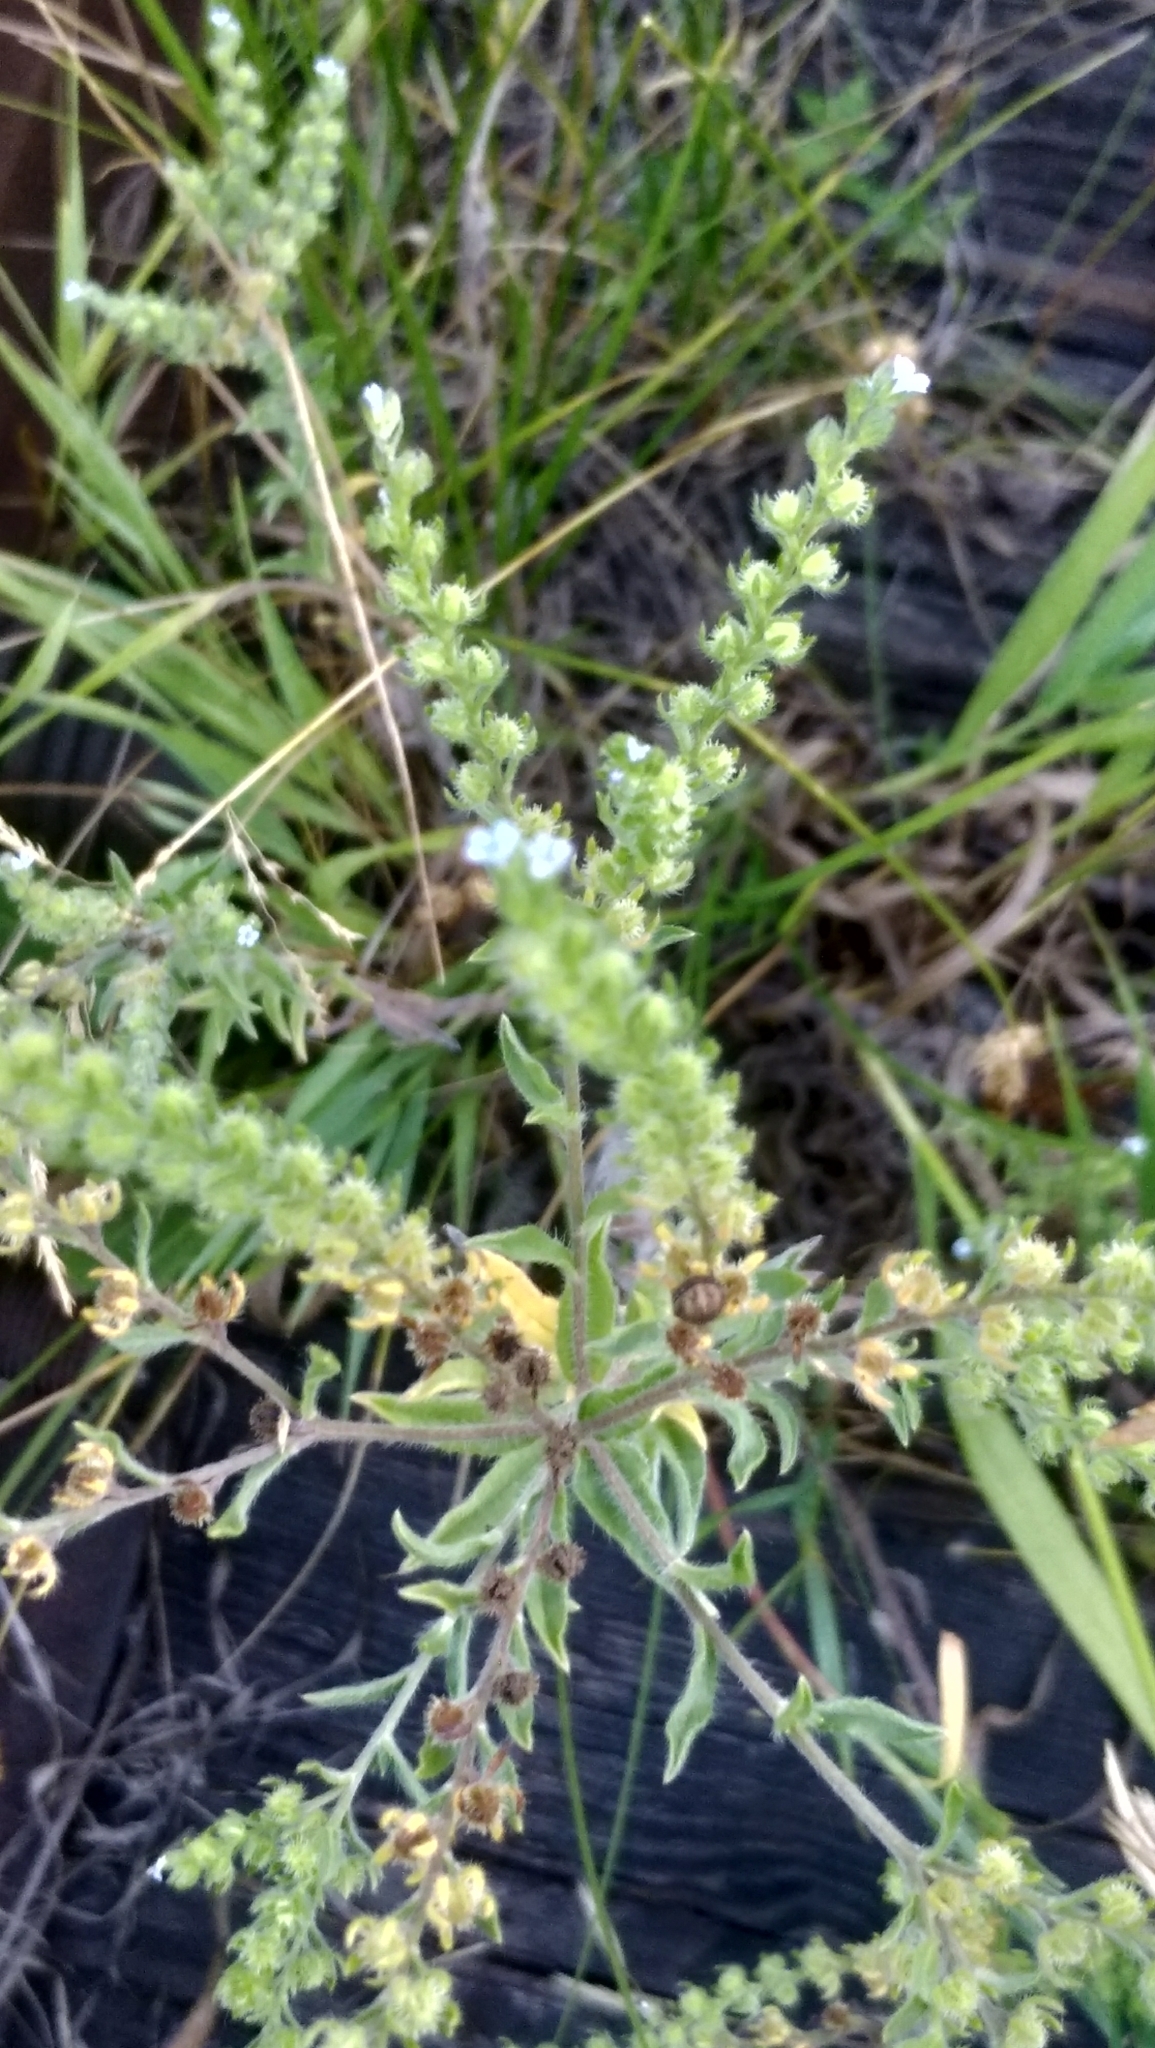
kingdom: Plantae
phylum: Tracheophyta
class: Magnoliopsida
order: Boraginales
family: Boraginaceae
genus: Lappula
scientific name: Lappula squarrosa
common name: European stickseed
